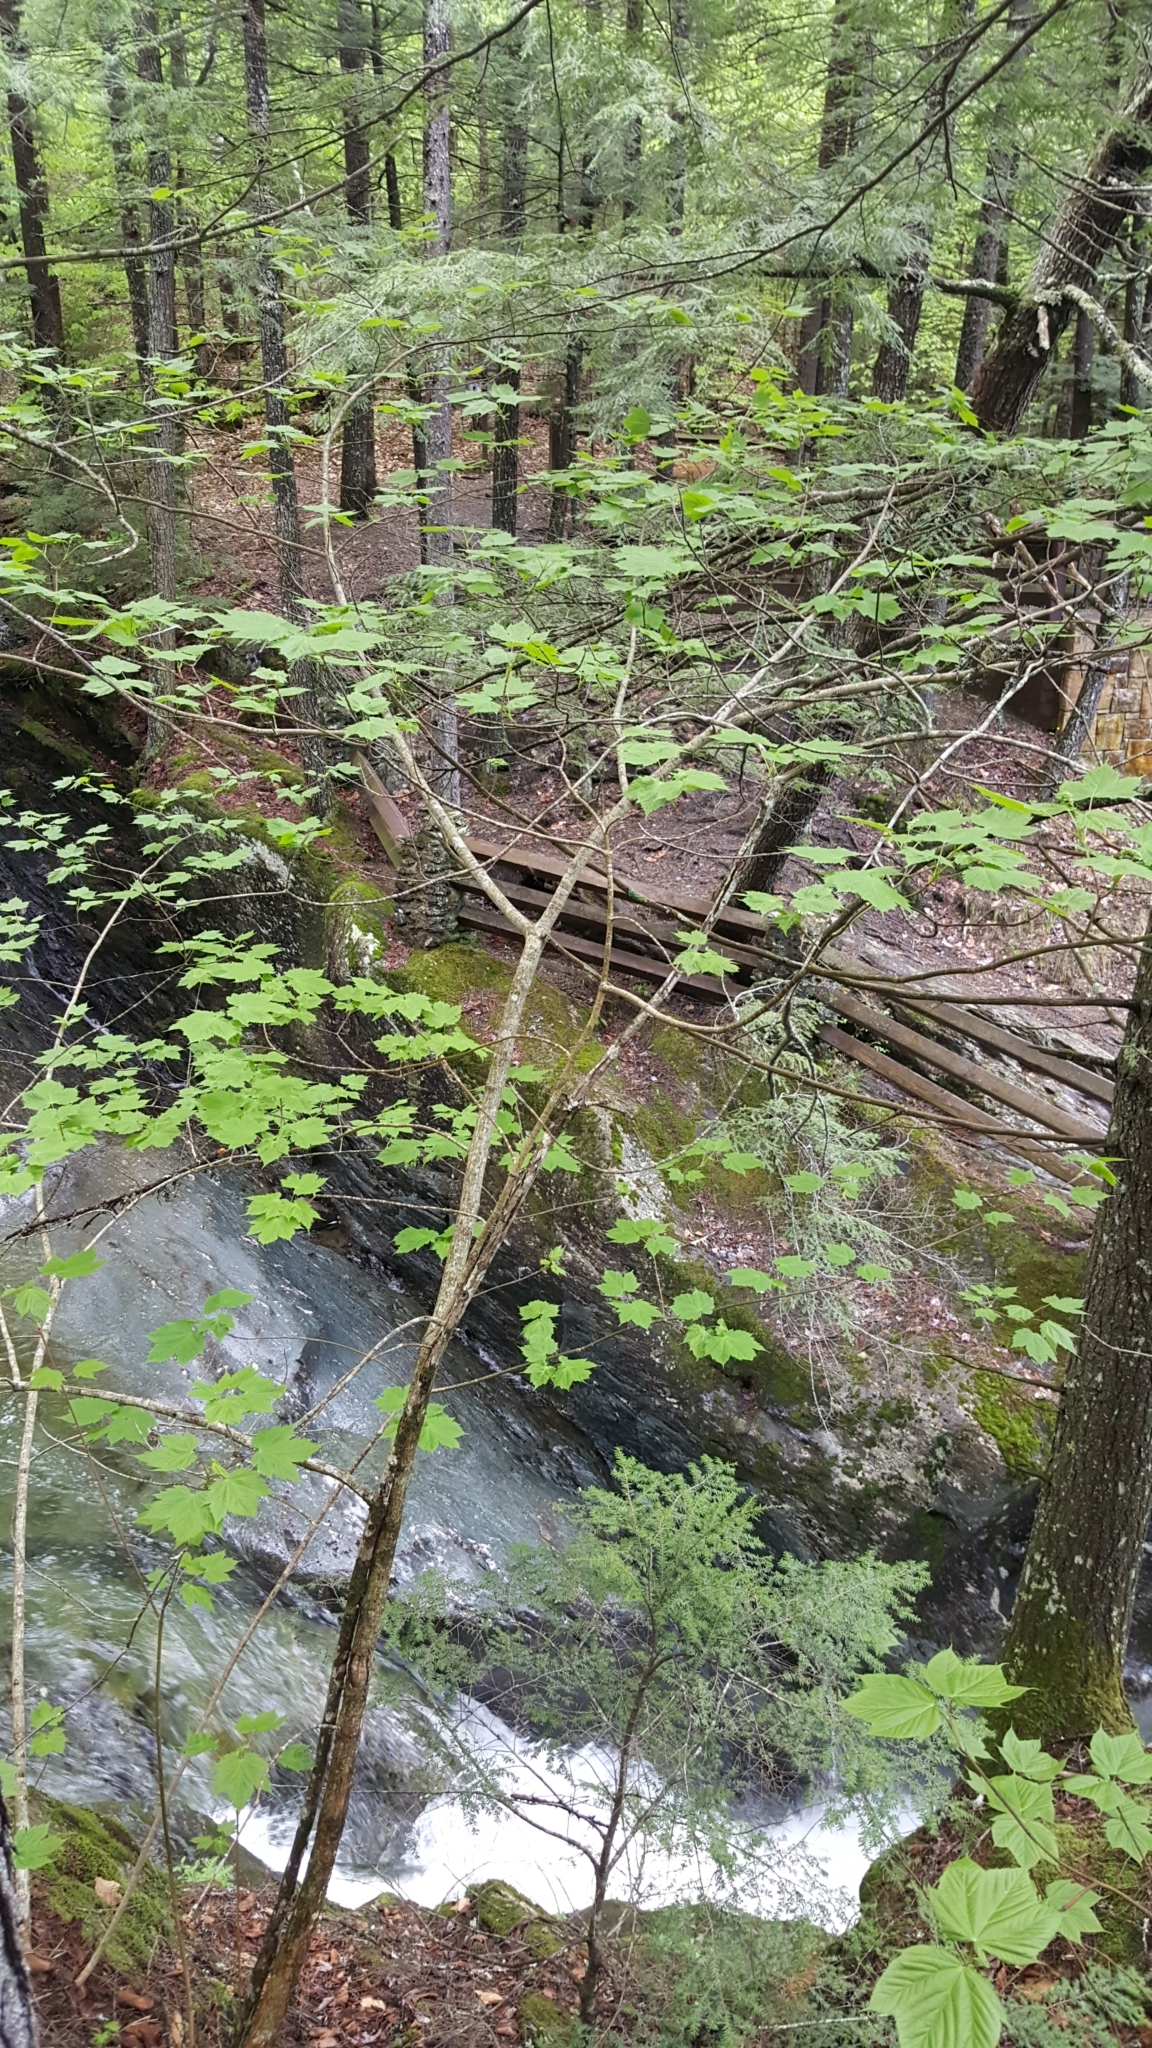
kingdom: Plantae
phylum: Tracheophyta
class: Magnoliopsida
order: Sapindales
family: Sapindaceae
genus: Acer
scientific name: Acer spicatum
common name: Mountain maple
